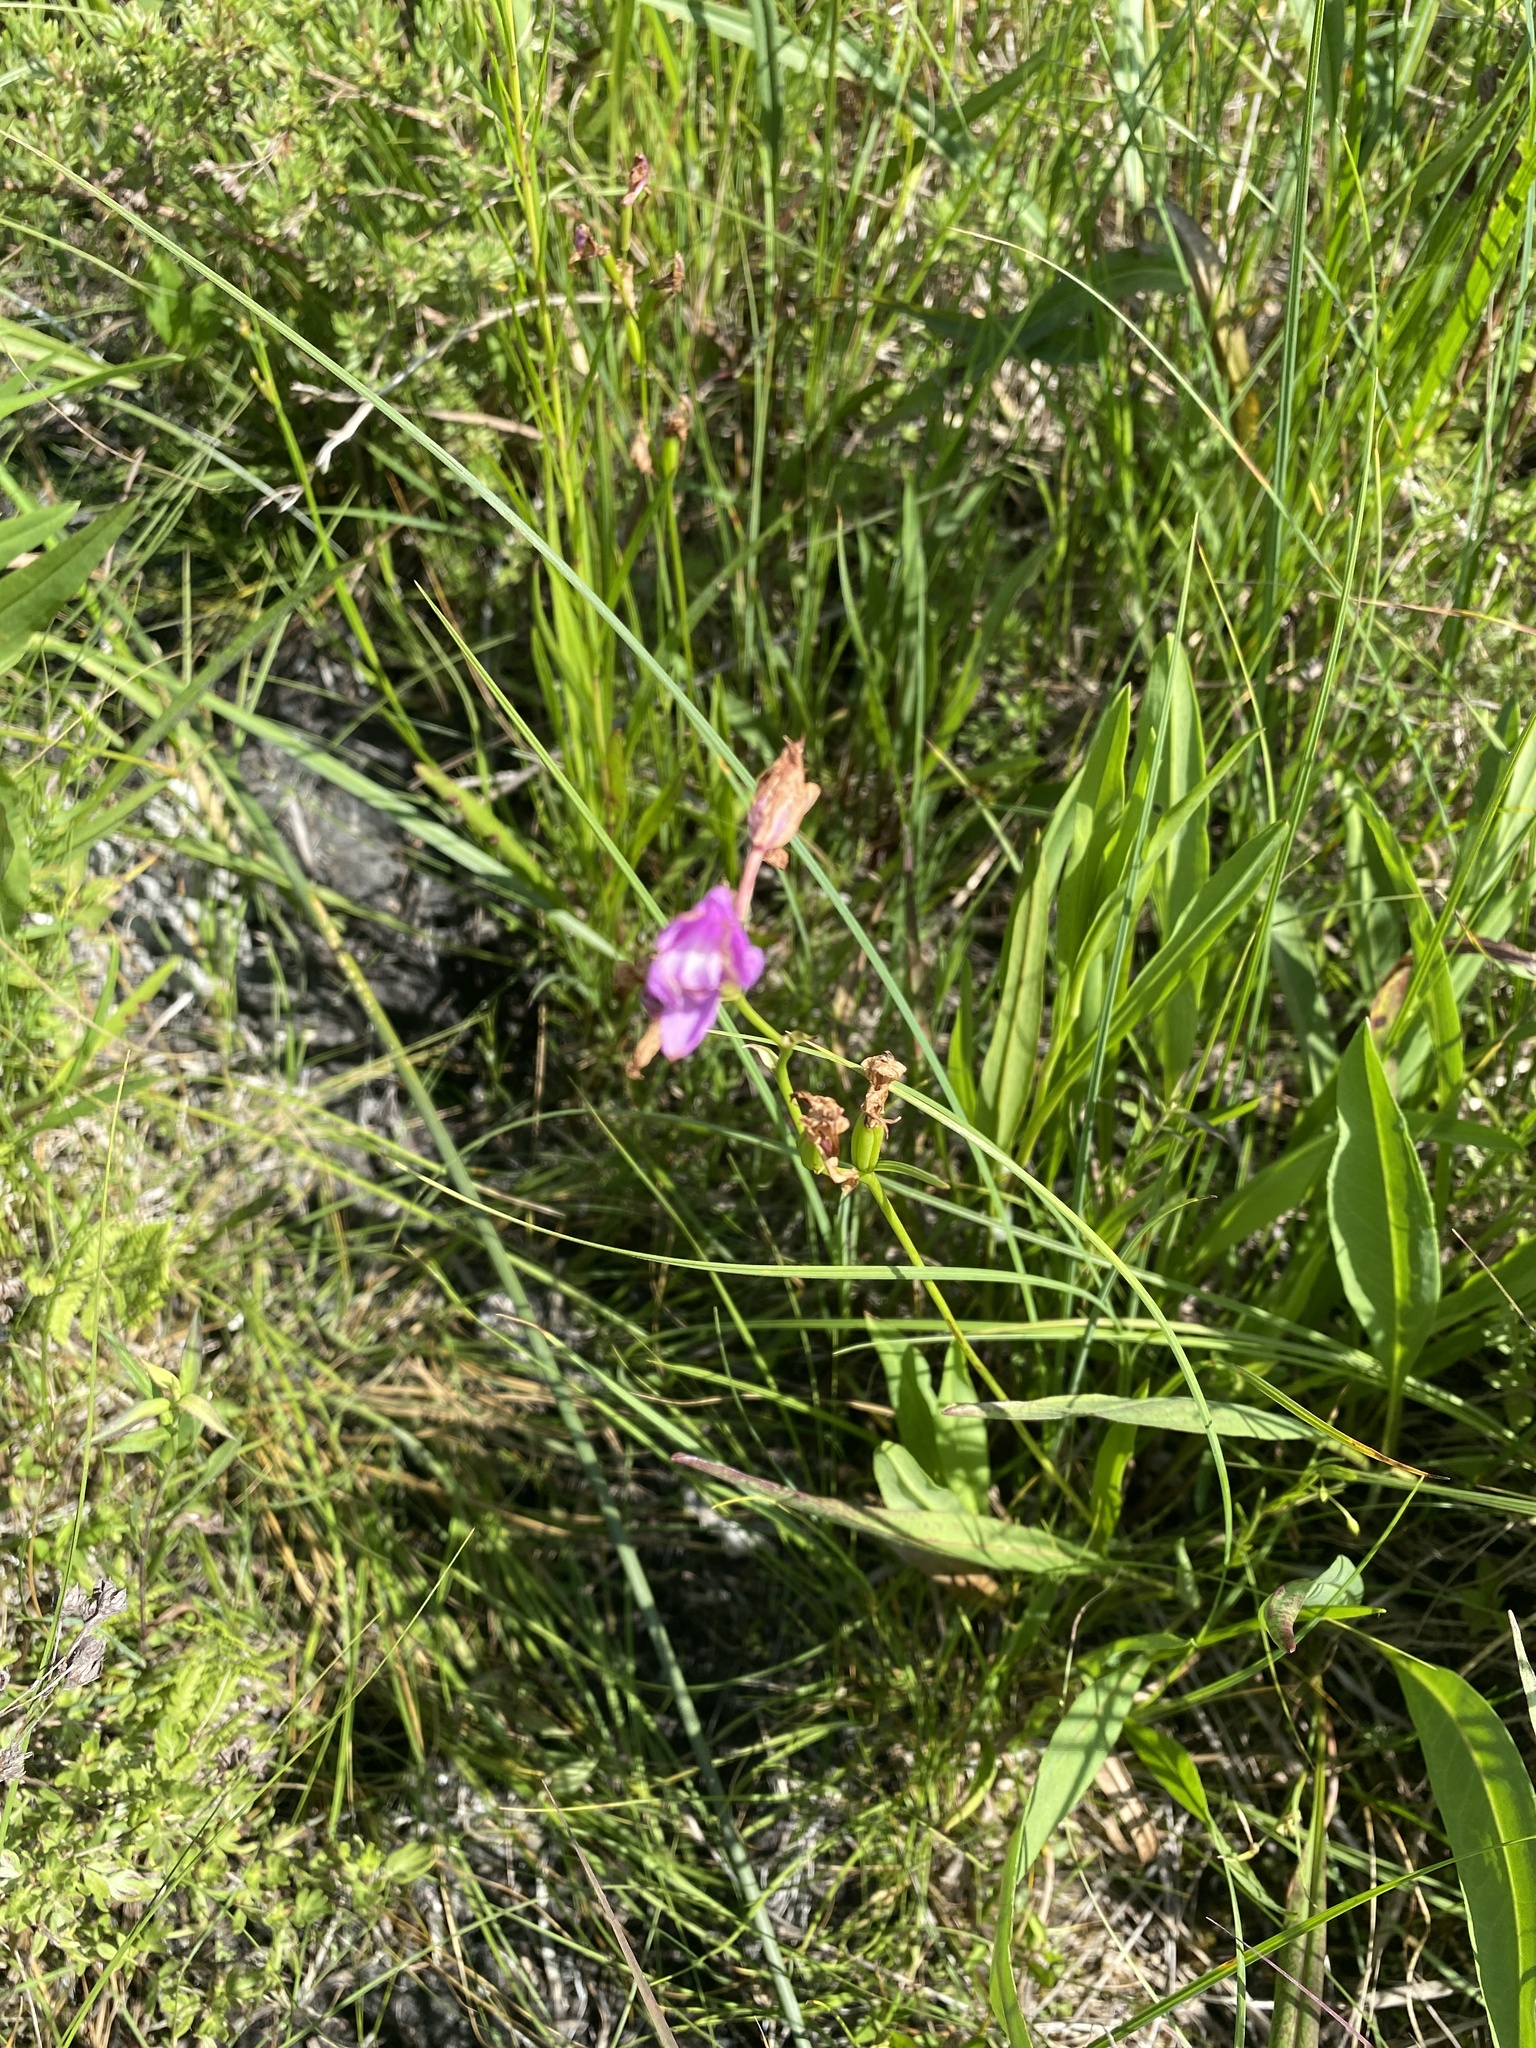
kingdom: Plantae
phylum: Tracheophyta
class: Liliopsida
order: Asparagales
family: Orchidaceae
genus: Calopogon
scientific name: Calopogon tuberosus
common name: Grass-pink
